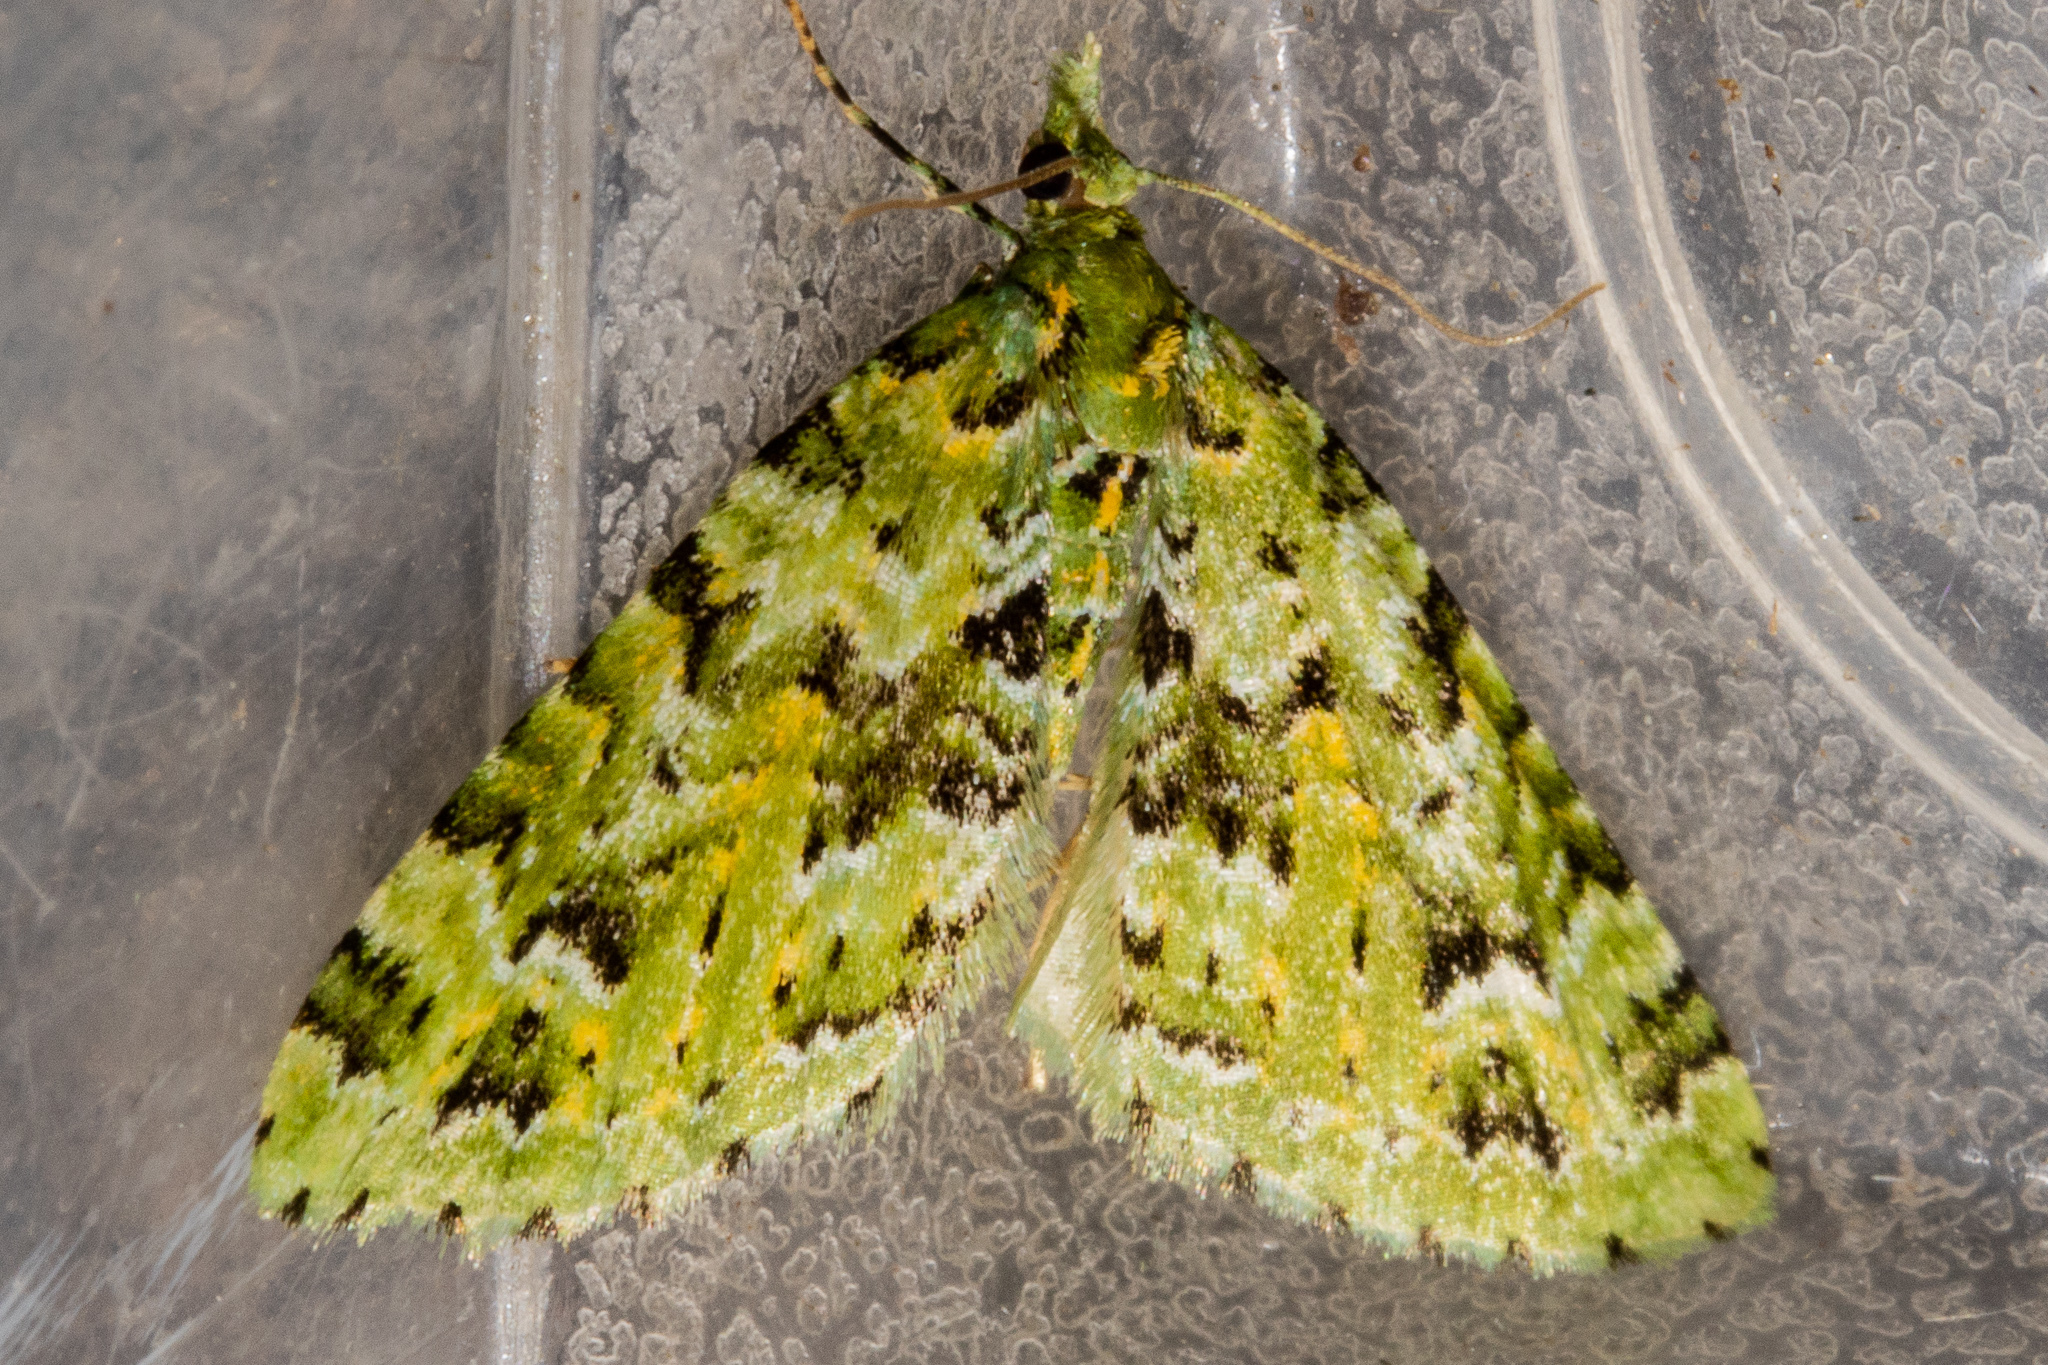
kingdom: Animalia
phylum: Arthropoda
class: Insecta
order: Lepidoptera
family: Geometridae
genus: Pasiphila
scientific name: Pasiphila melochlora
